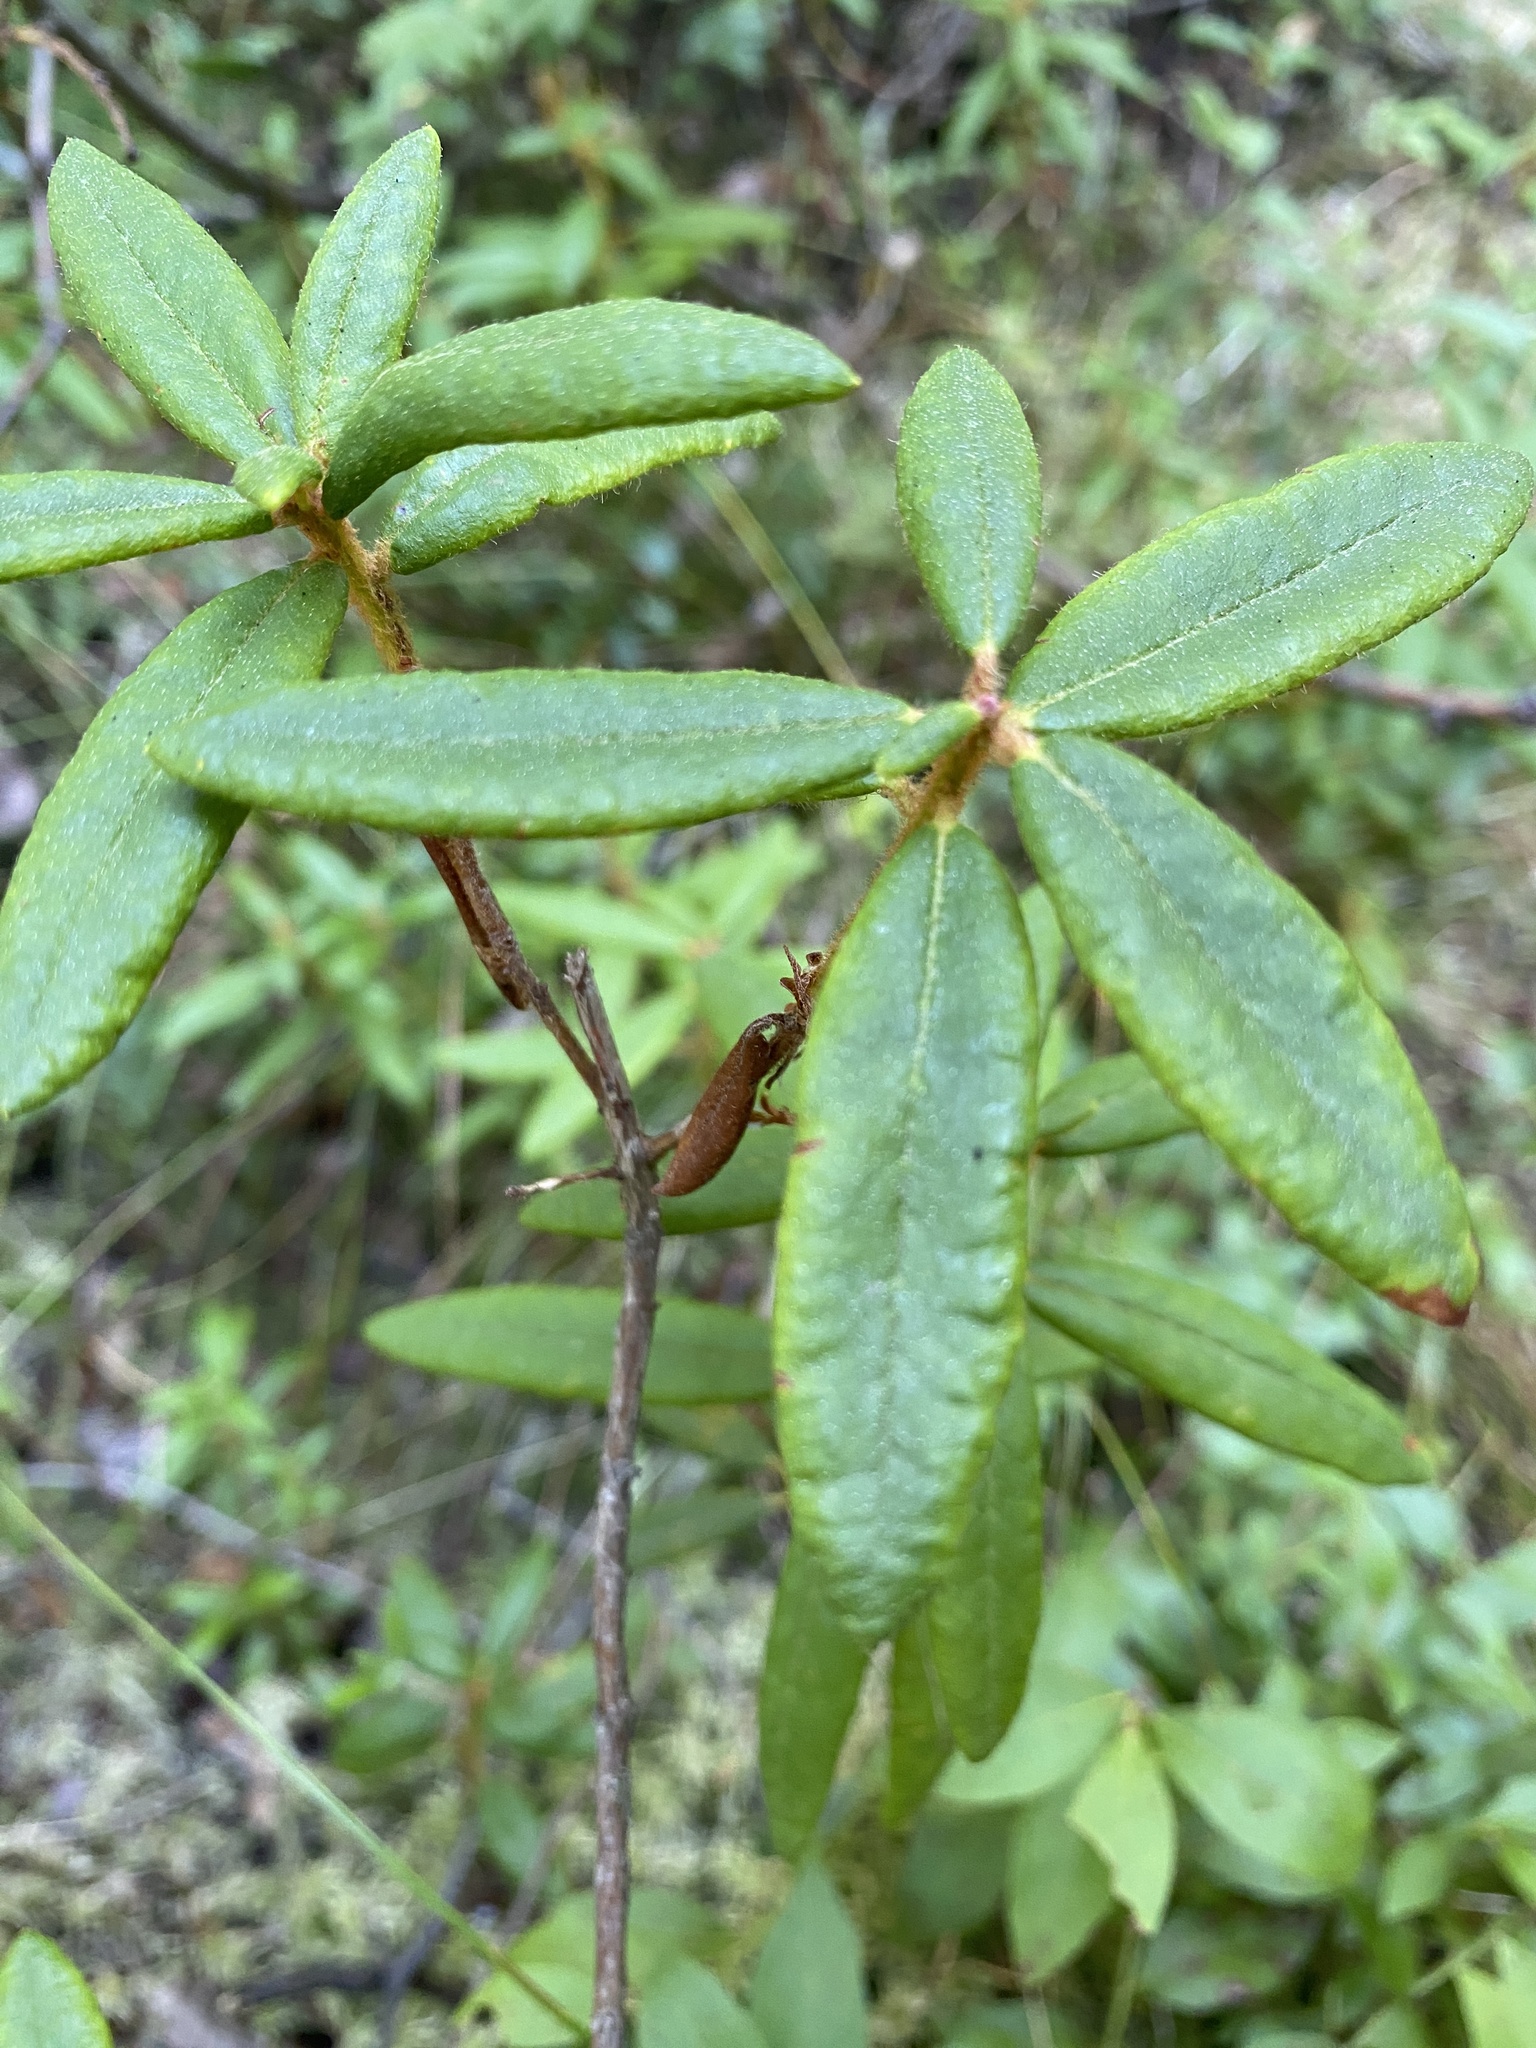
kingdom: Plantae
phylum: Tracheophyta
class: Magnoliopsida
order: Ericales
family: Ericaceae
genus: Rhododendron
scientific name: Rhododendron groenlandicum
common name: Bog labrador tea
